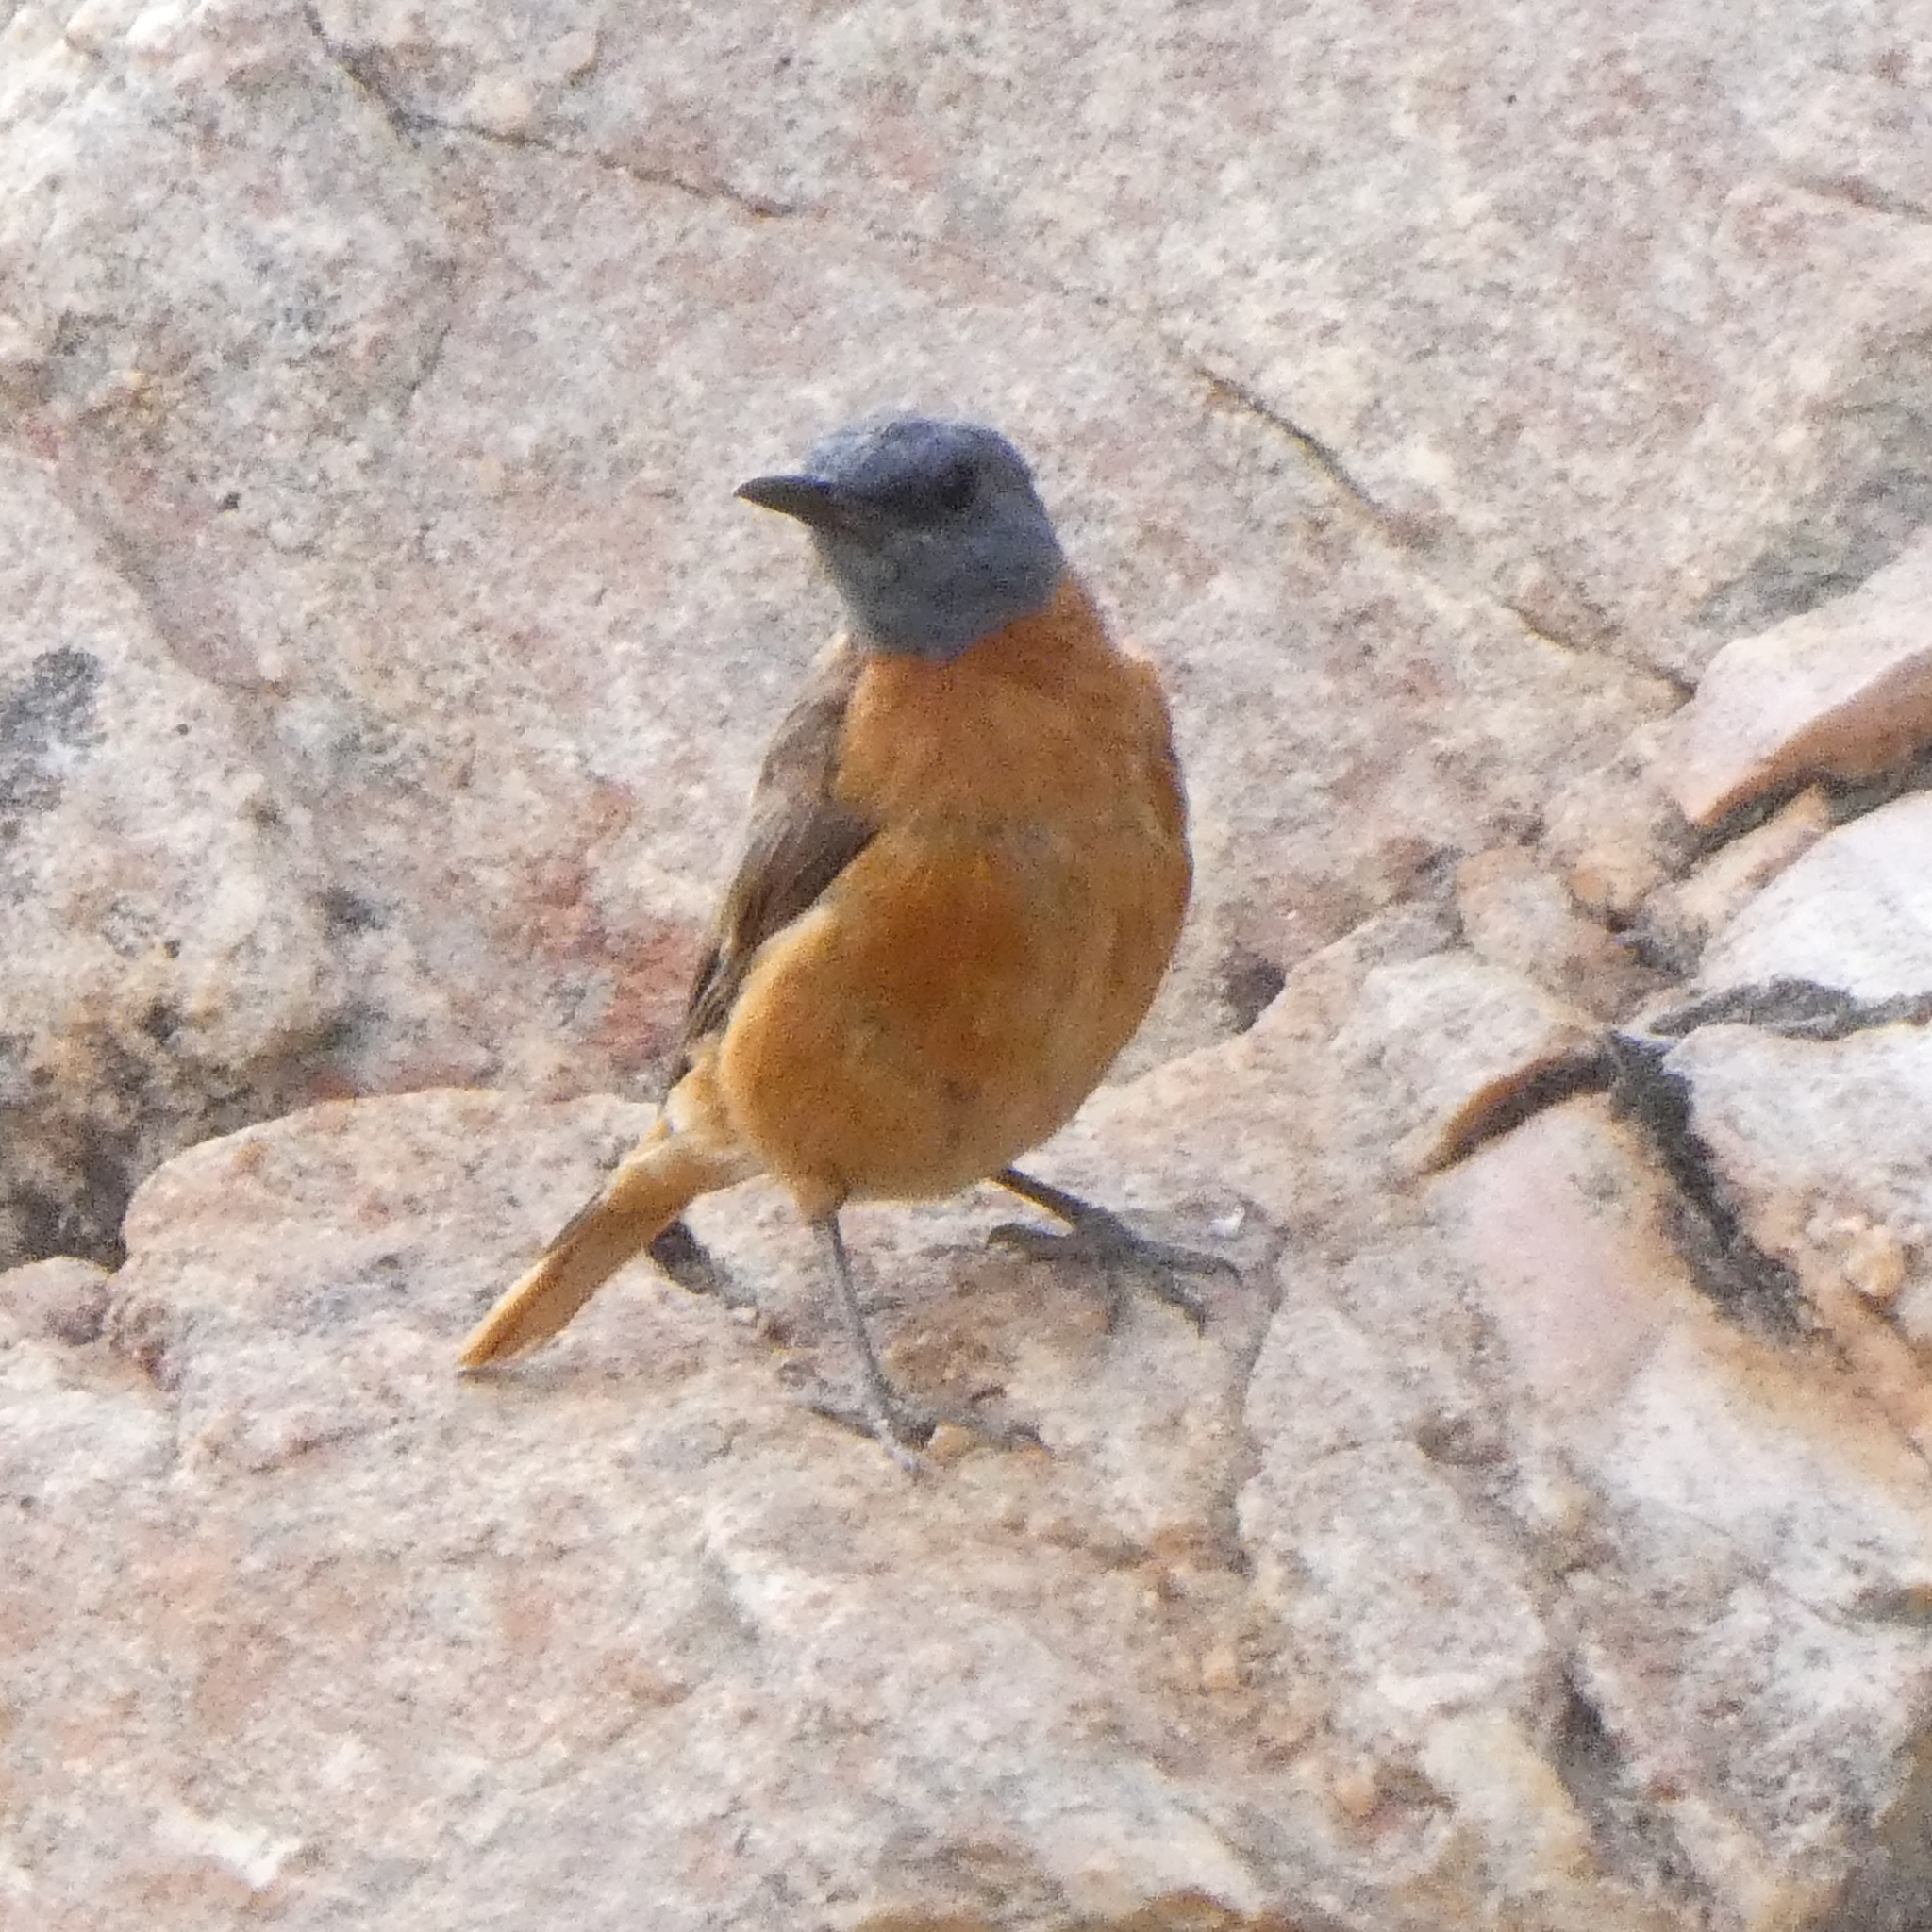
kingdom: Animalia
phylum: Chordata
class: Aves
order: Passeriformes
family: Muscicapidae
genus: Monticola
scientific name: Monticola rupestris
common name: Cape rock thrush
